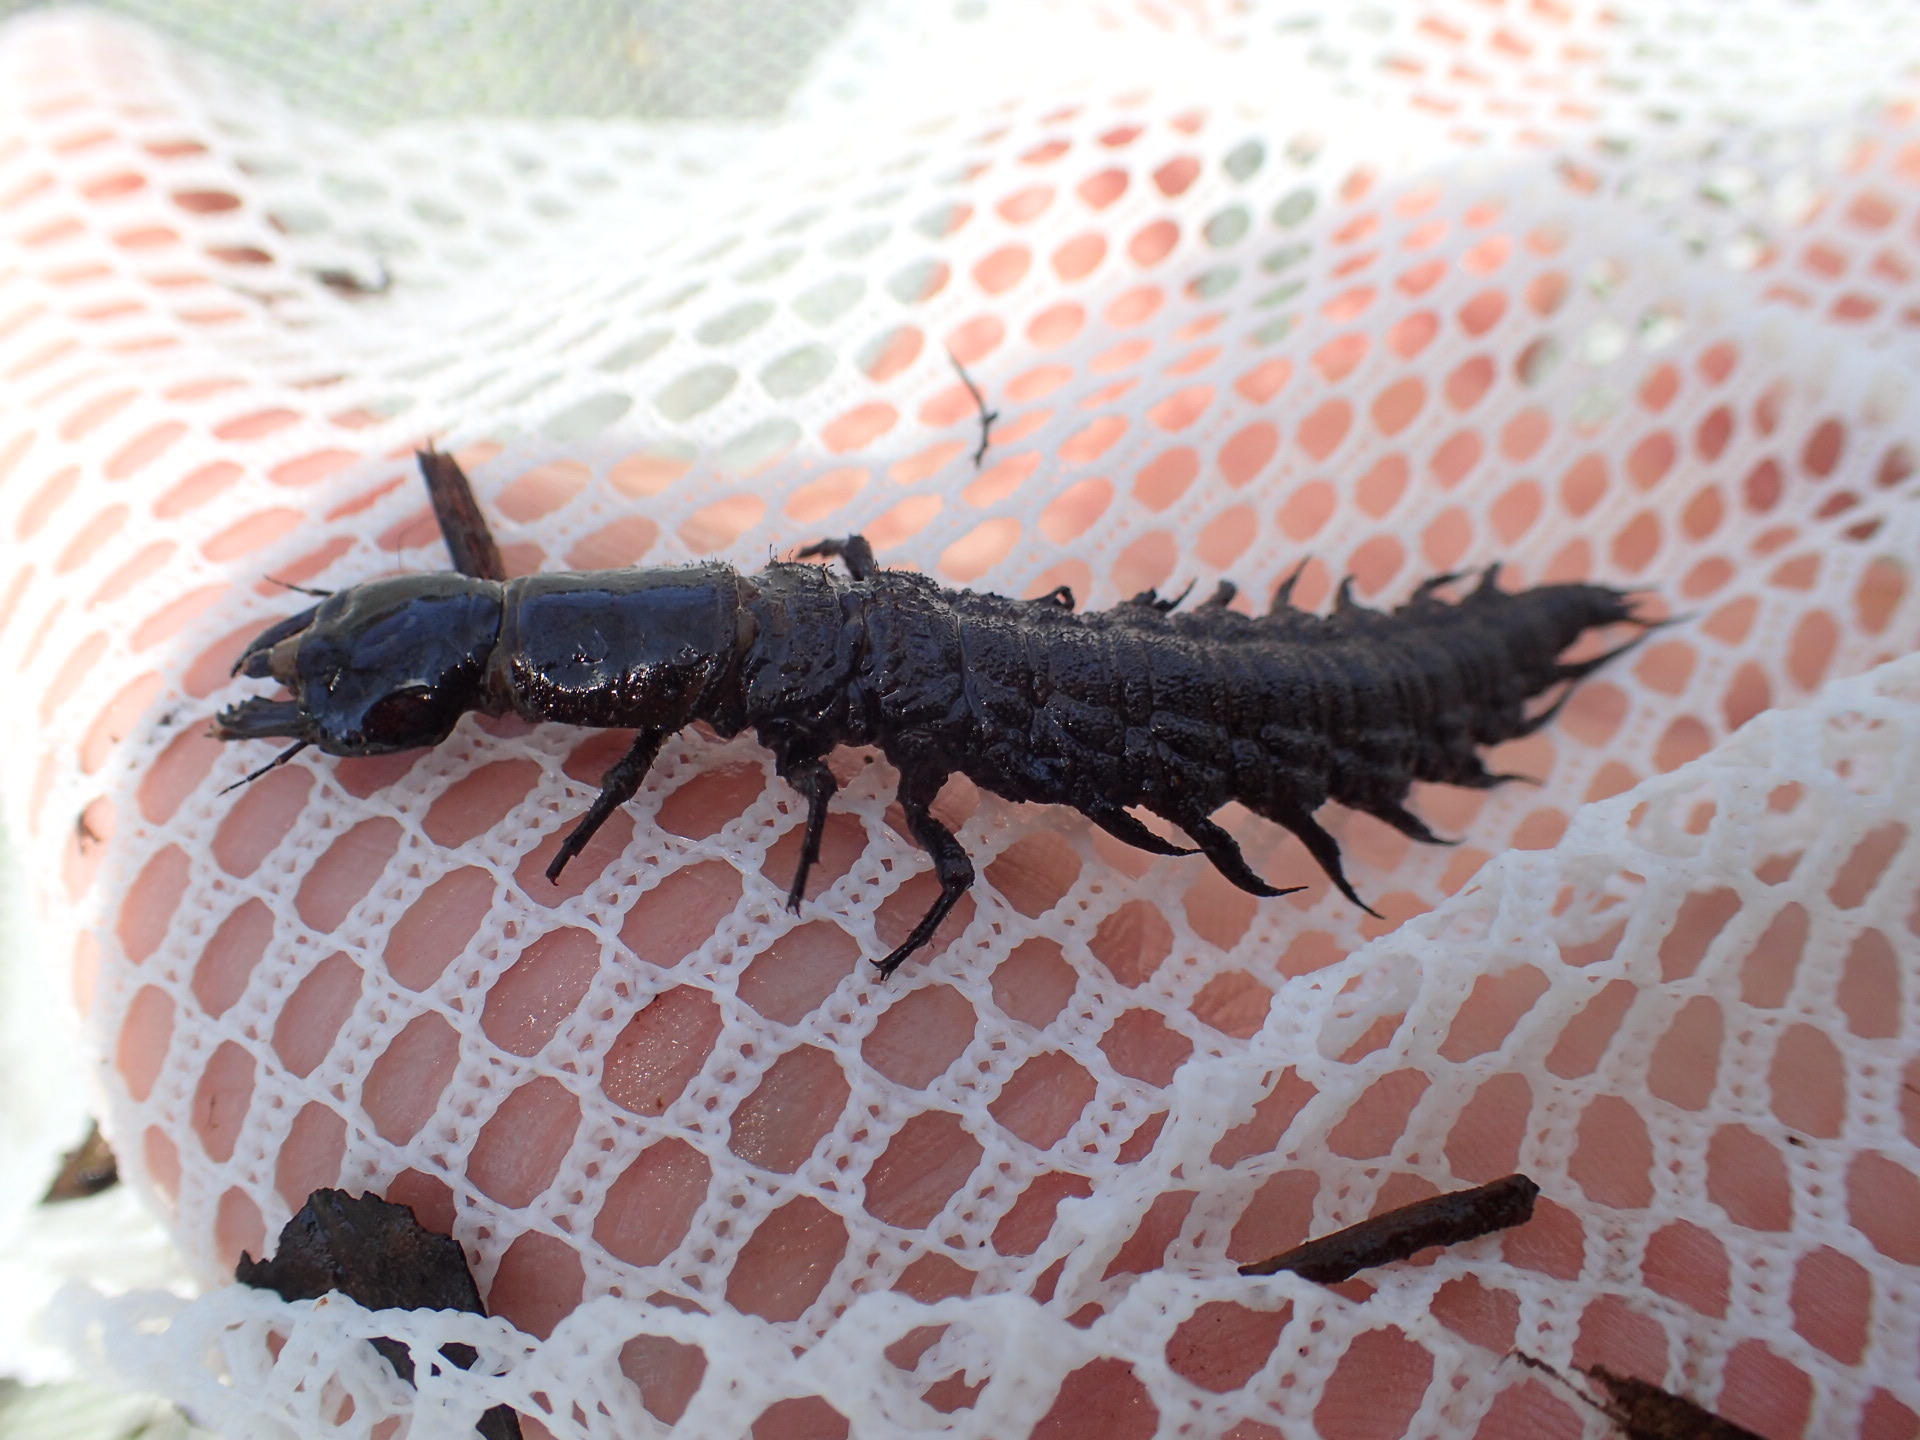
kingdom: Animalia
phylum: Arthropoda
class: Insecta
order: Megaloptera
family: Corydalidae
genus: Corydalus
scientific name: Corydalus cornutus
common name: Dobsonfly
